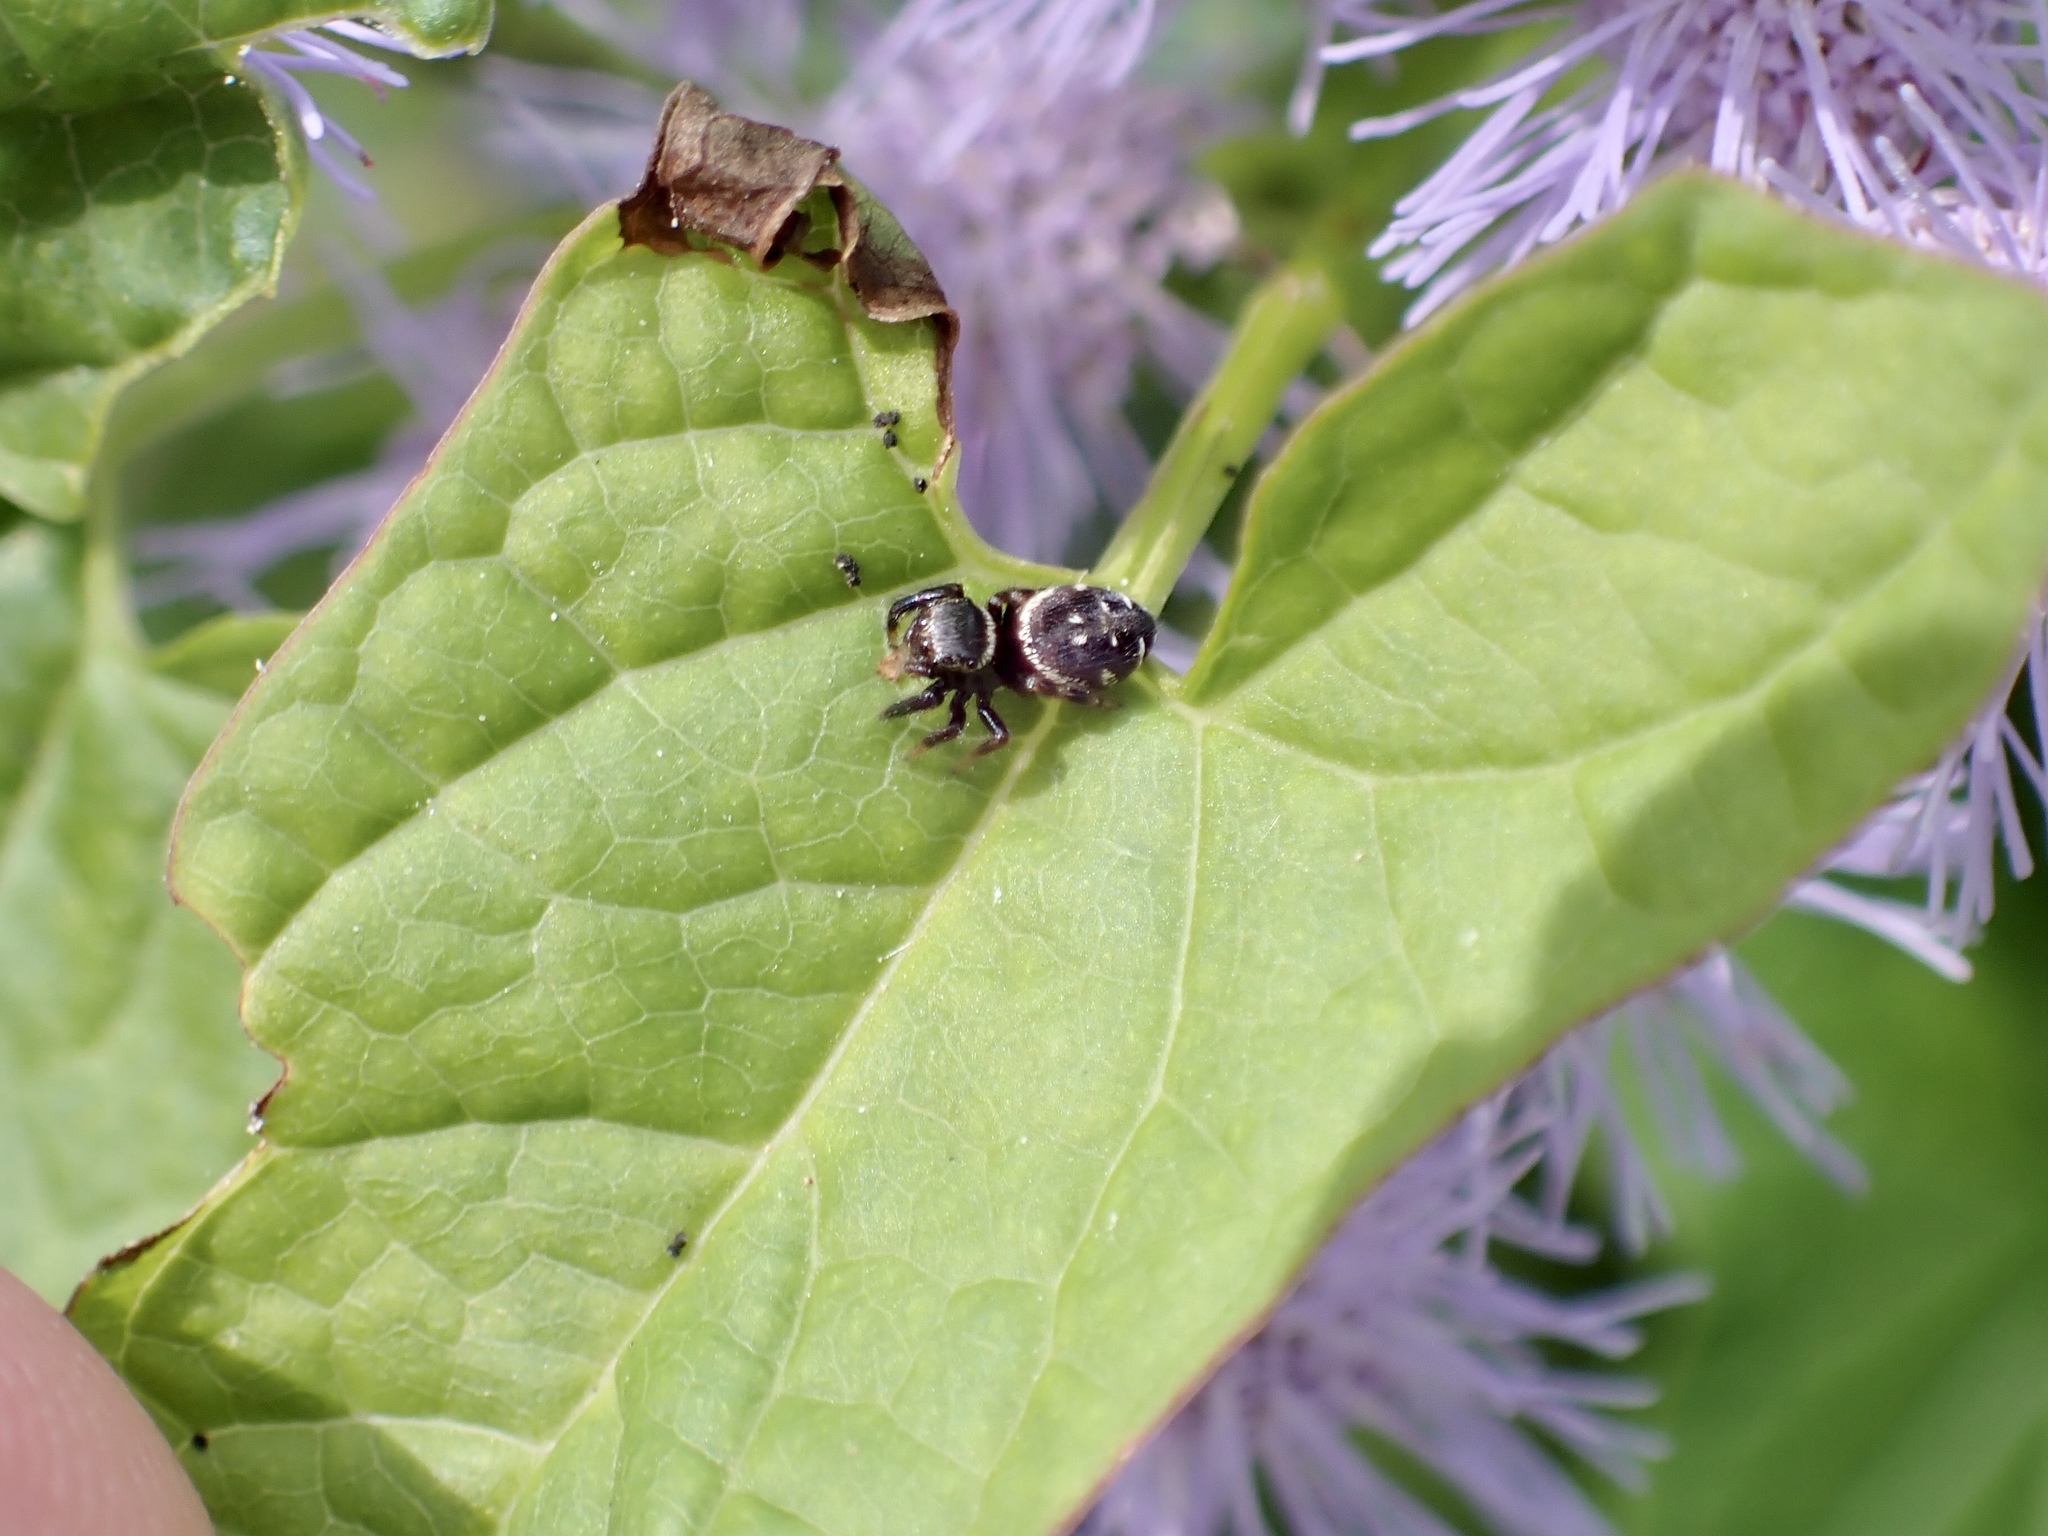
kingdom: Animalia
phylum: Arthropoda
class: Arachnida
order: Araneae
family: Salticidae
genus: Paraphidippus
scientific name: Paraphidippus aurantius
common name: Jumping spiders
